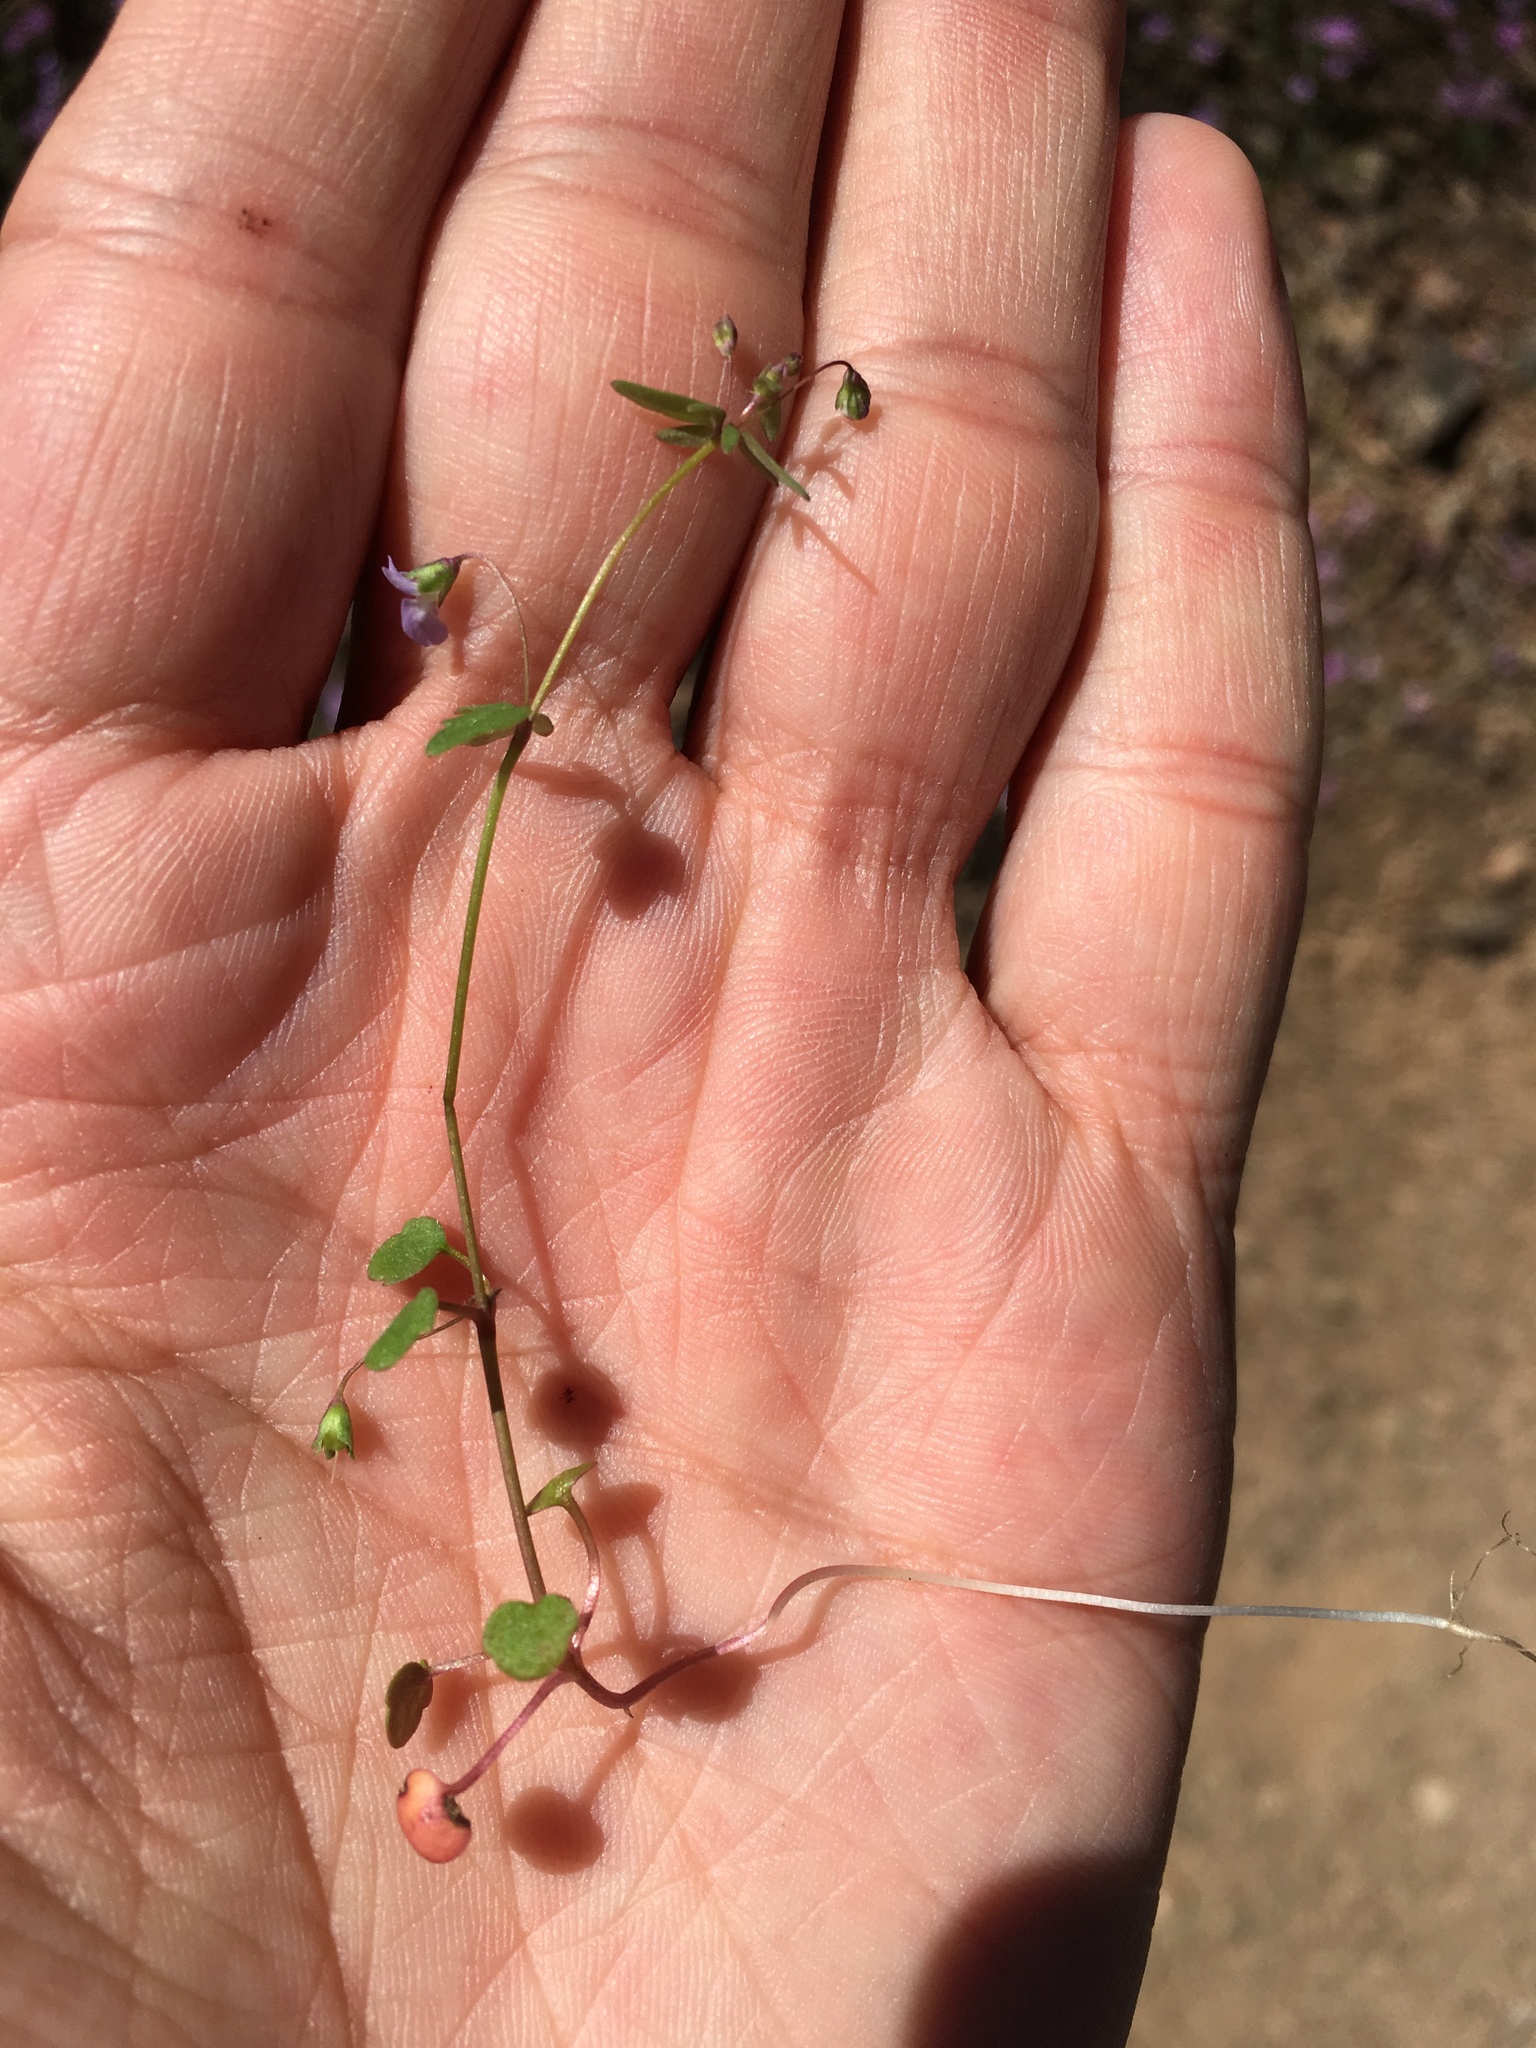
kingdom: Plantae
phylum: Tracheophyta
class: Magnoliopsida
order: Lamiales
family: Plantaginaceae
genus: Tonella
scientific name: Tonella tenella
